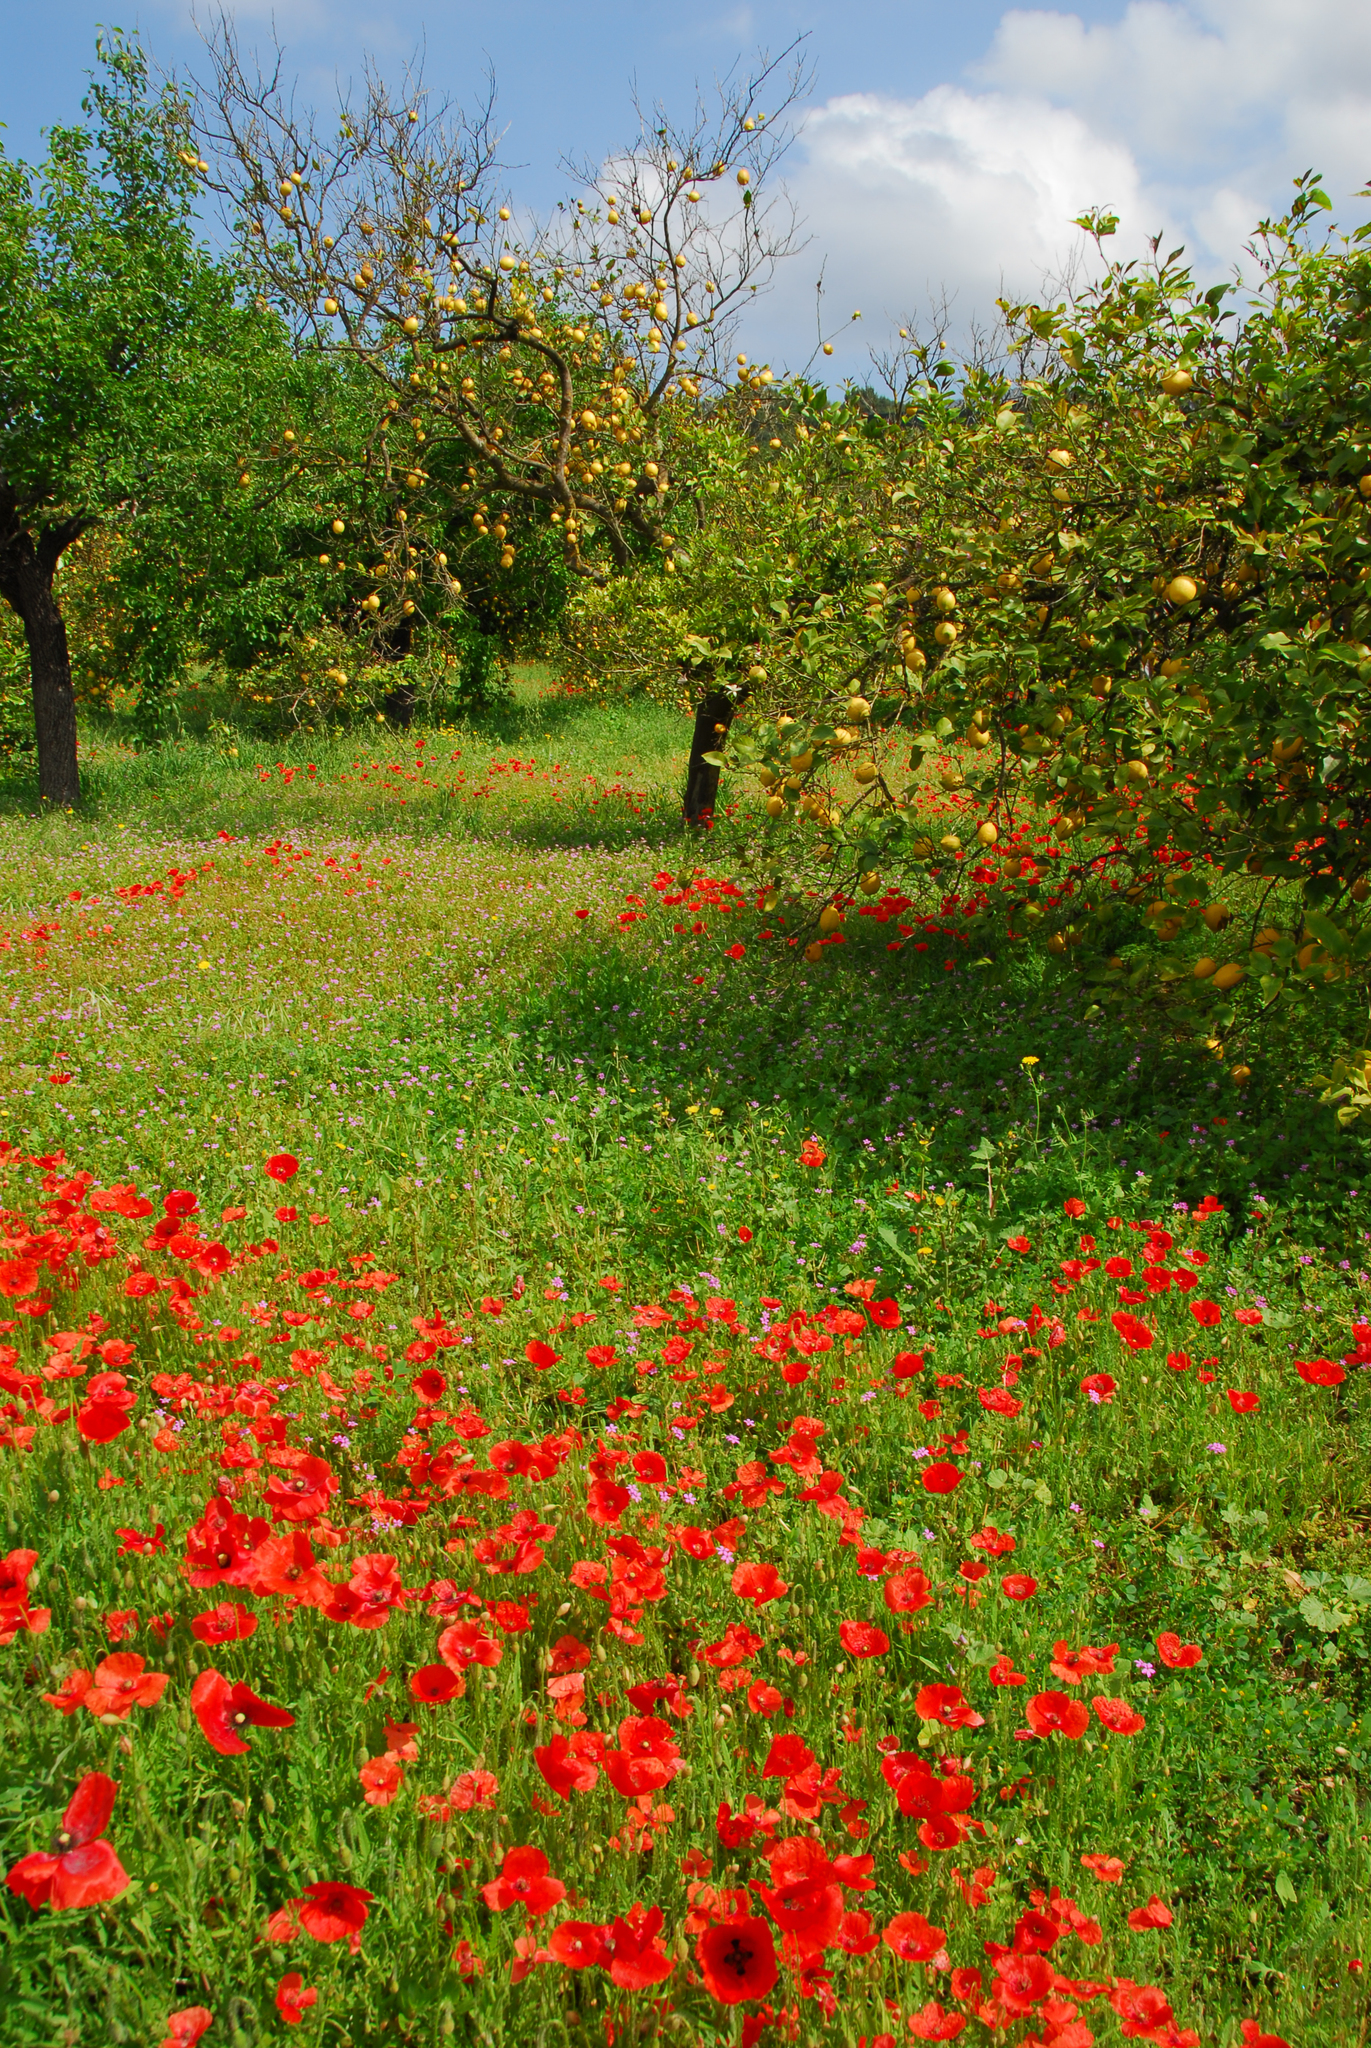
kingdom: Plantae
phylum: Tracheophyta
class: Magnoliopsida
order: Ranunculales
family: Papaveraceae
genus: Papaver
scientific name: Papaver rhoeas
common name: Corn poppy
